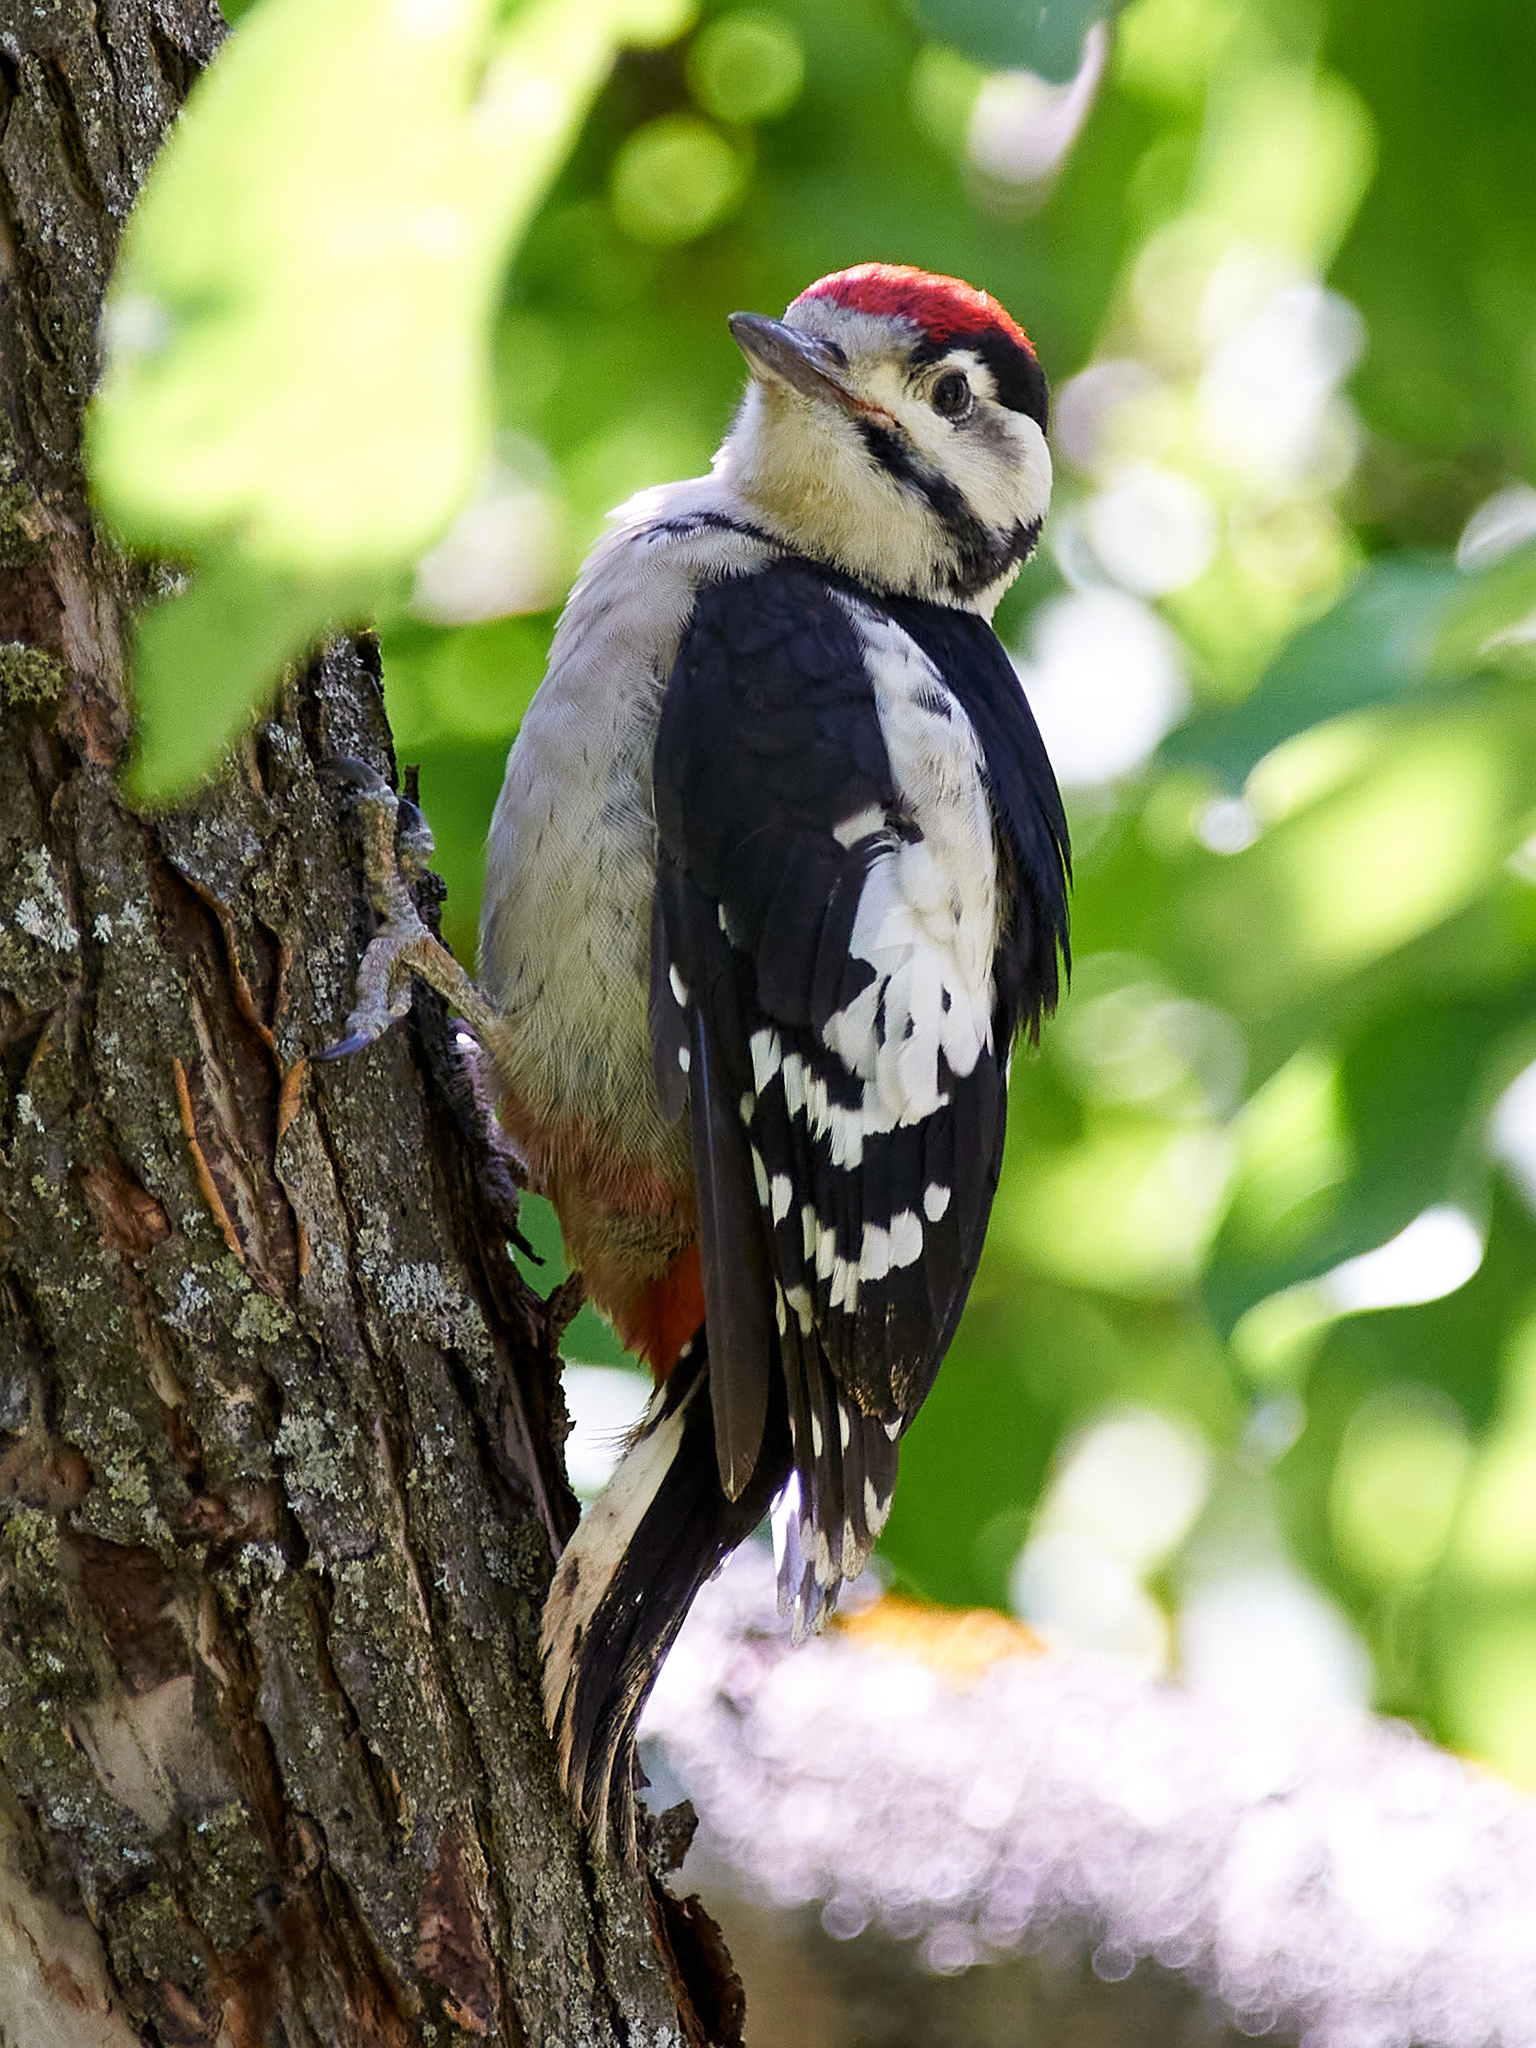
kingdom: Animalia
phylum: Chordata
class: Aves
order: Piciformes
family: Picidae
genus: Dendrocopos
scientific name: Dendrocopos major
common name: Great spotted woodpecker
